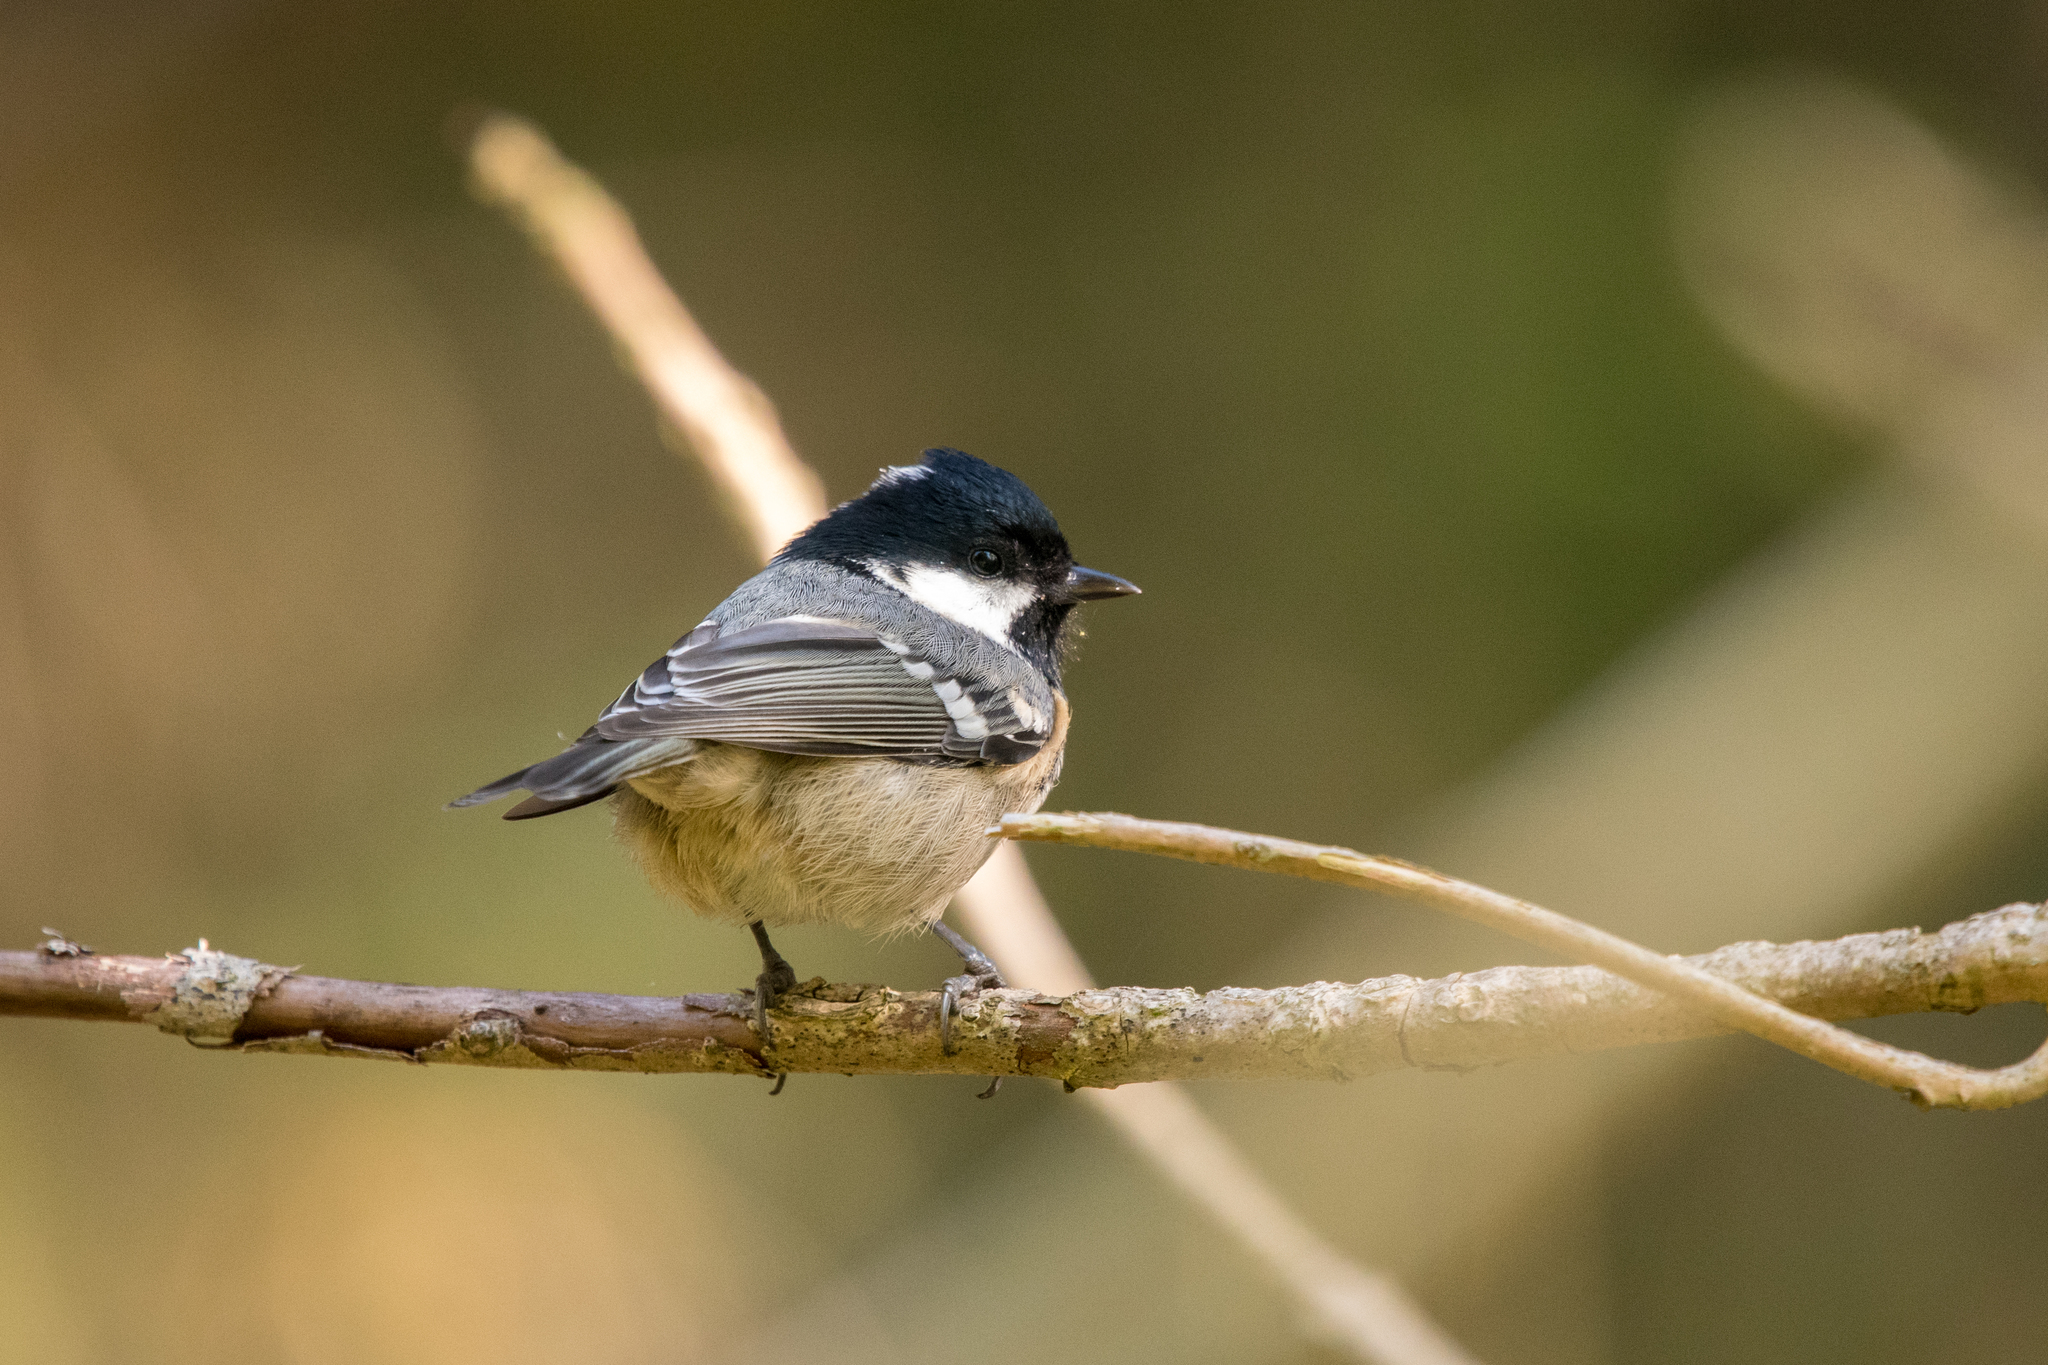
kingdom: Animalia
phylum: Chordata
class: Aves
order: Passeriformes
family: Paridae
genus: Periparus
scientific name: Periparus ater
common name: Coal tit
